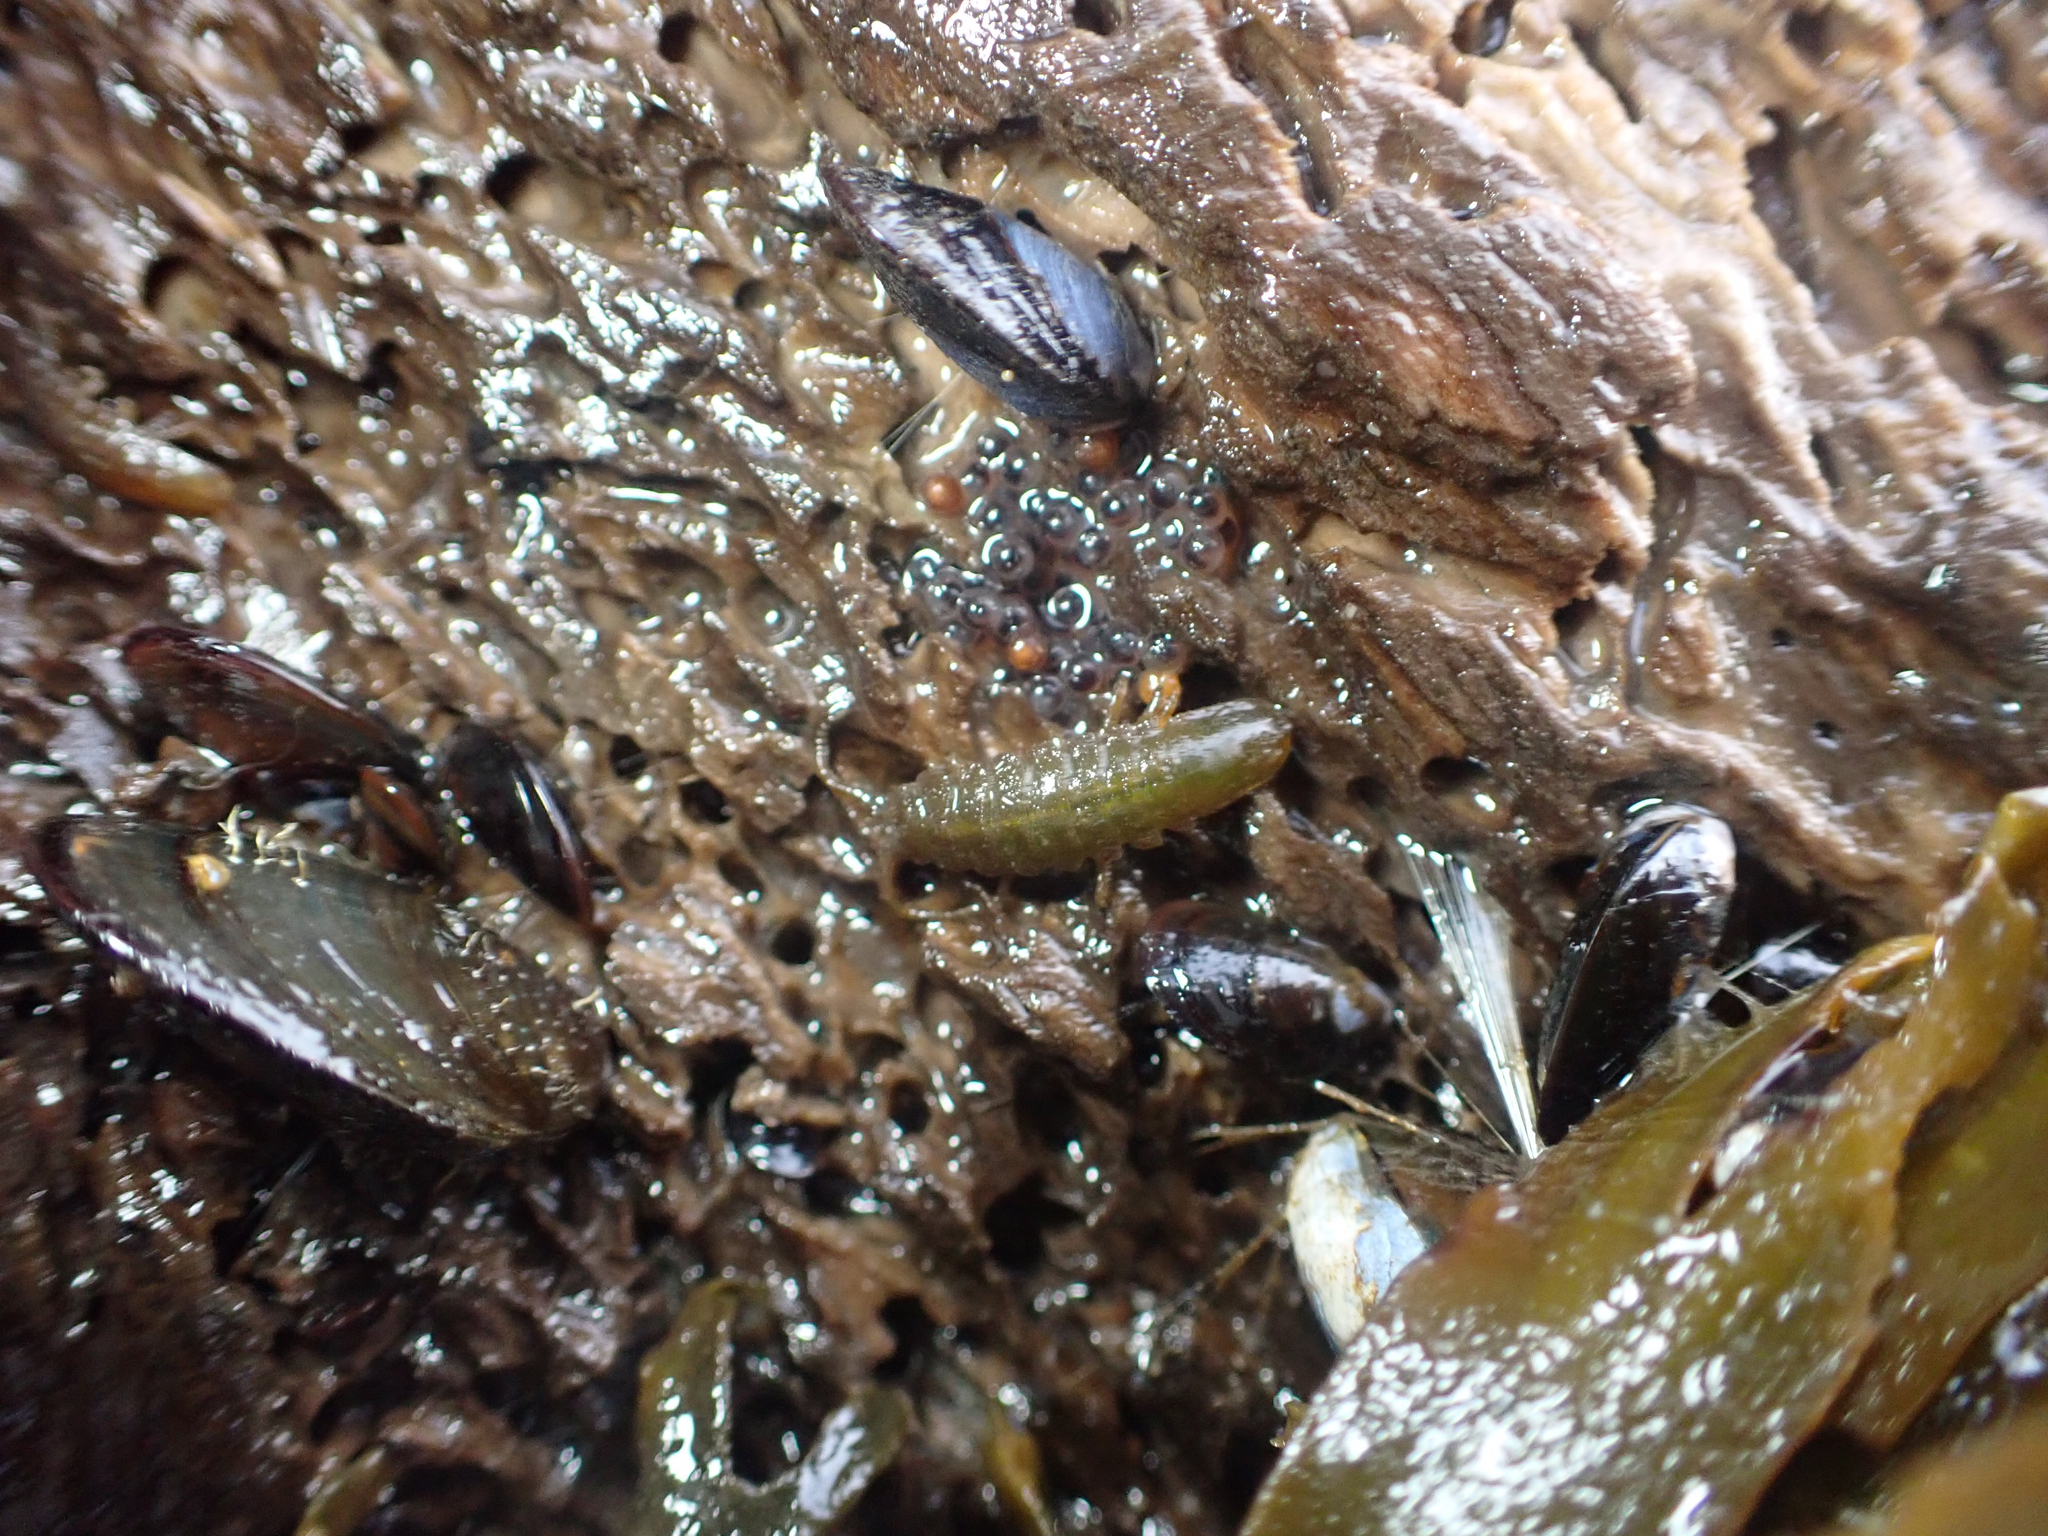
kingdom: Animalia
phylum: Arthropoda
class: Malacostraca
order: Isopoda
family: Idoteidae
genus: Pentidotea
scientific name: Pentidotea wosnesenskii
